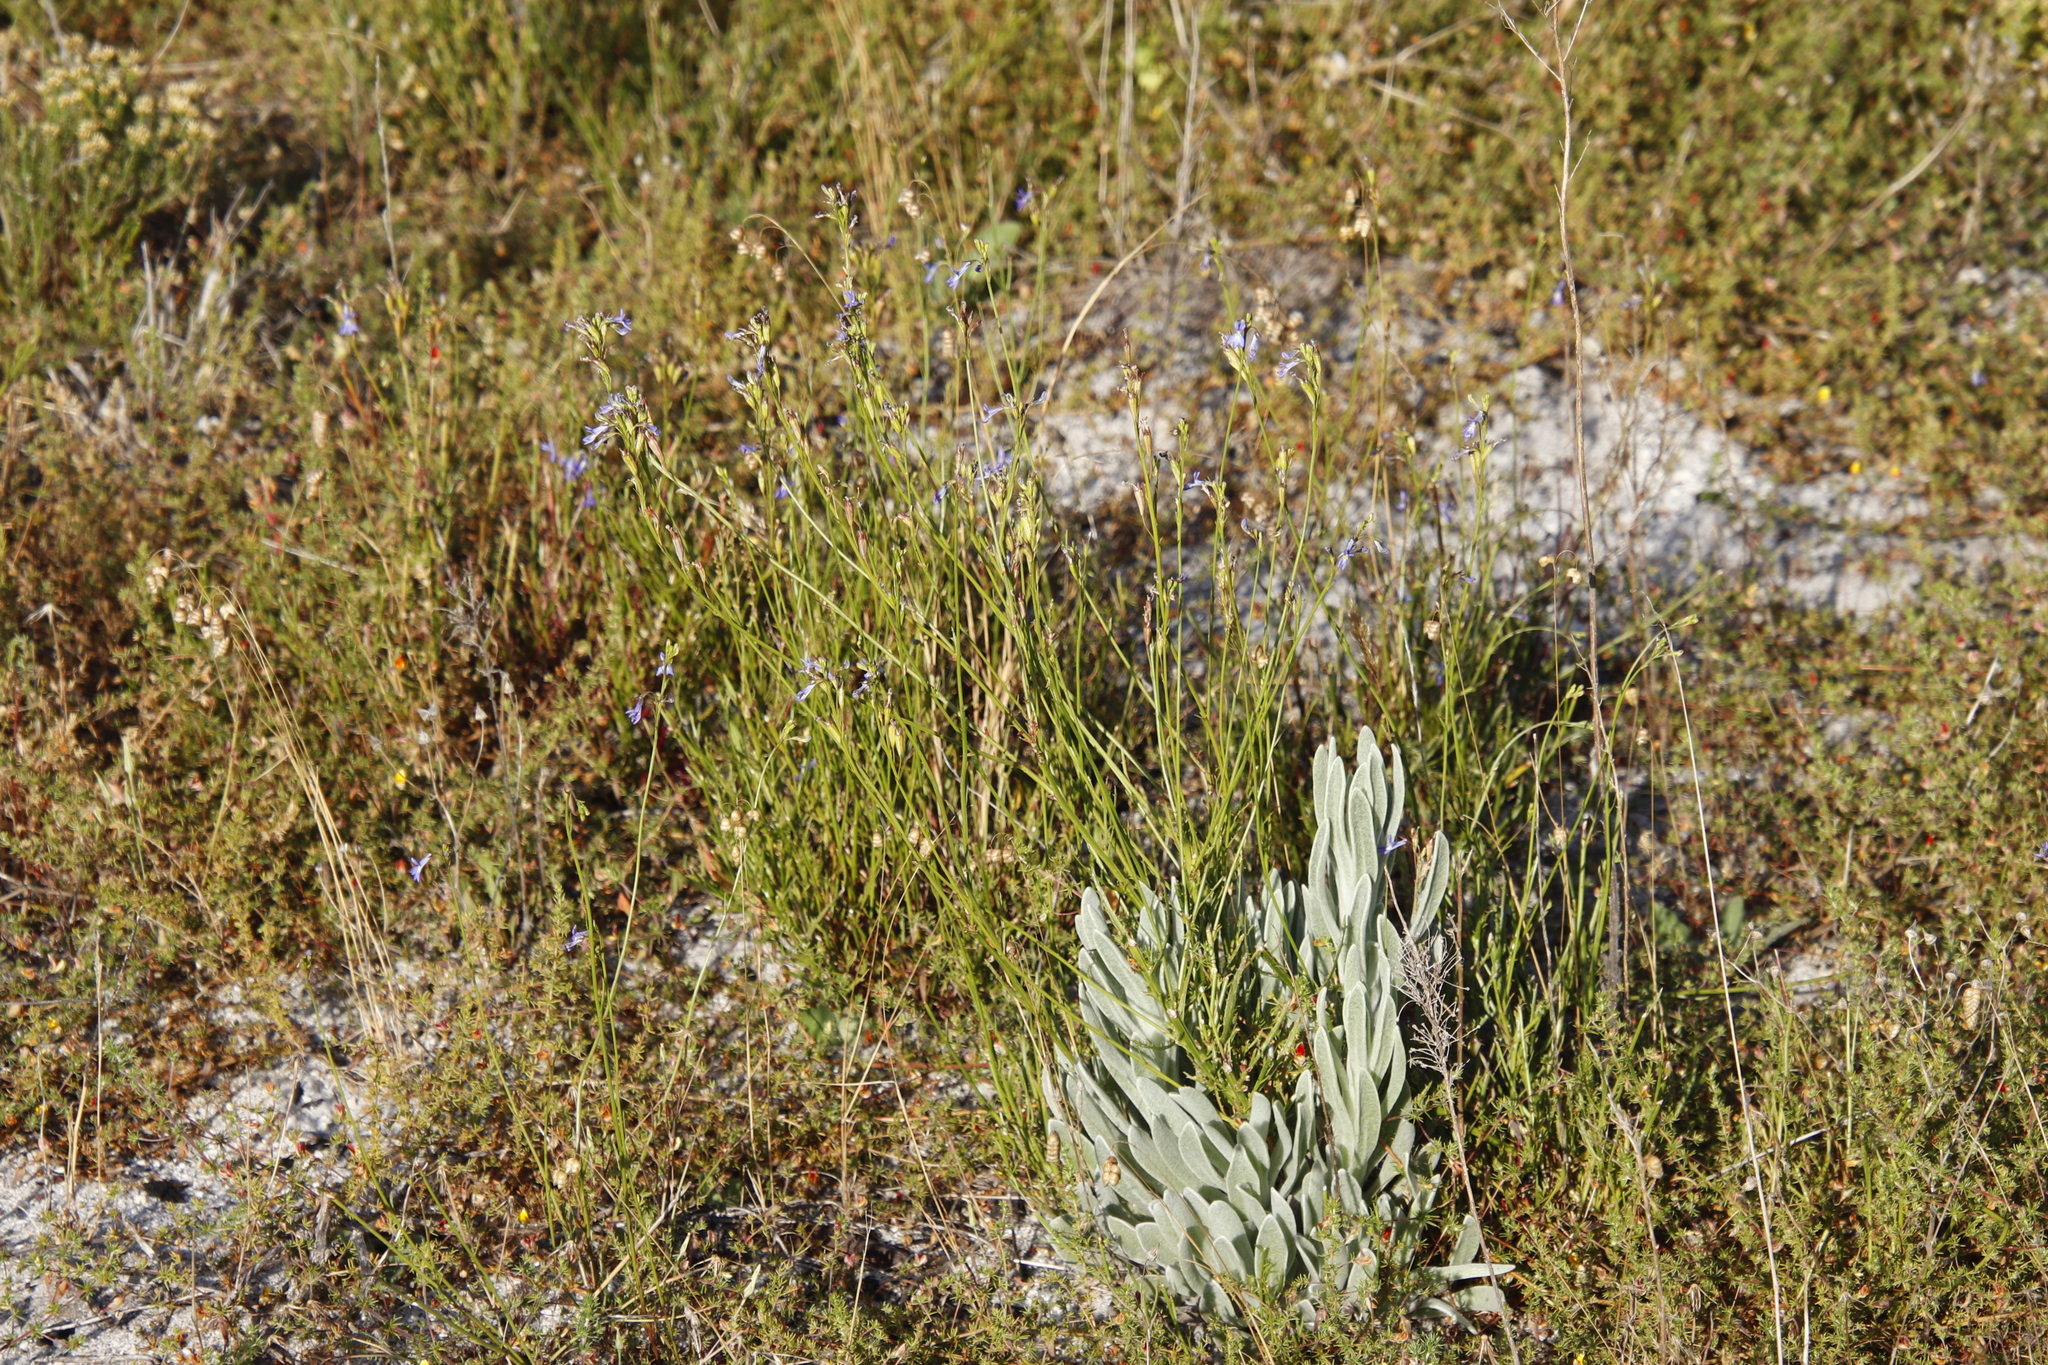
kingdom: Plantae
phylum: Tracheophyta
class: Magnoliopsida
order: Asterales
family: Campanulaceae
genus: Lobelia
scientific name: Lobelia comosa
